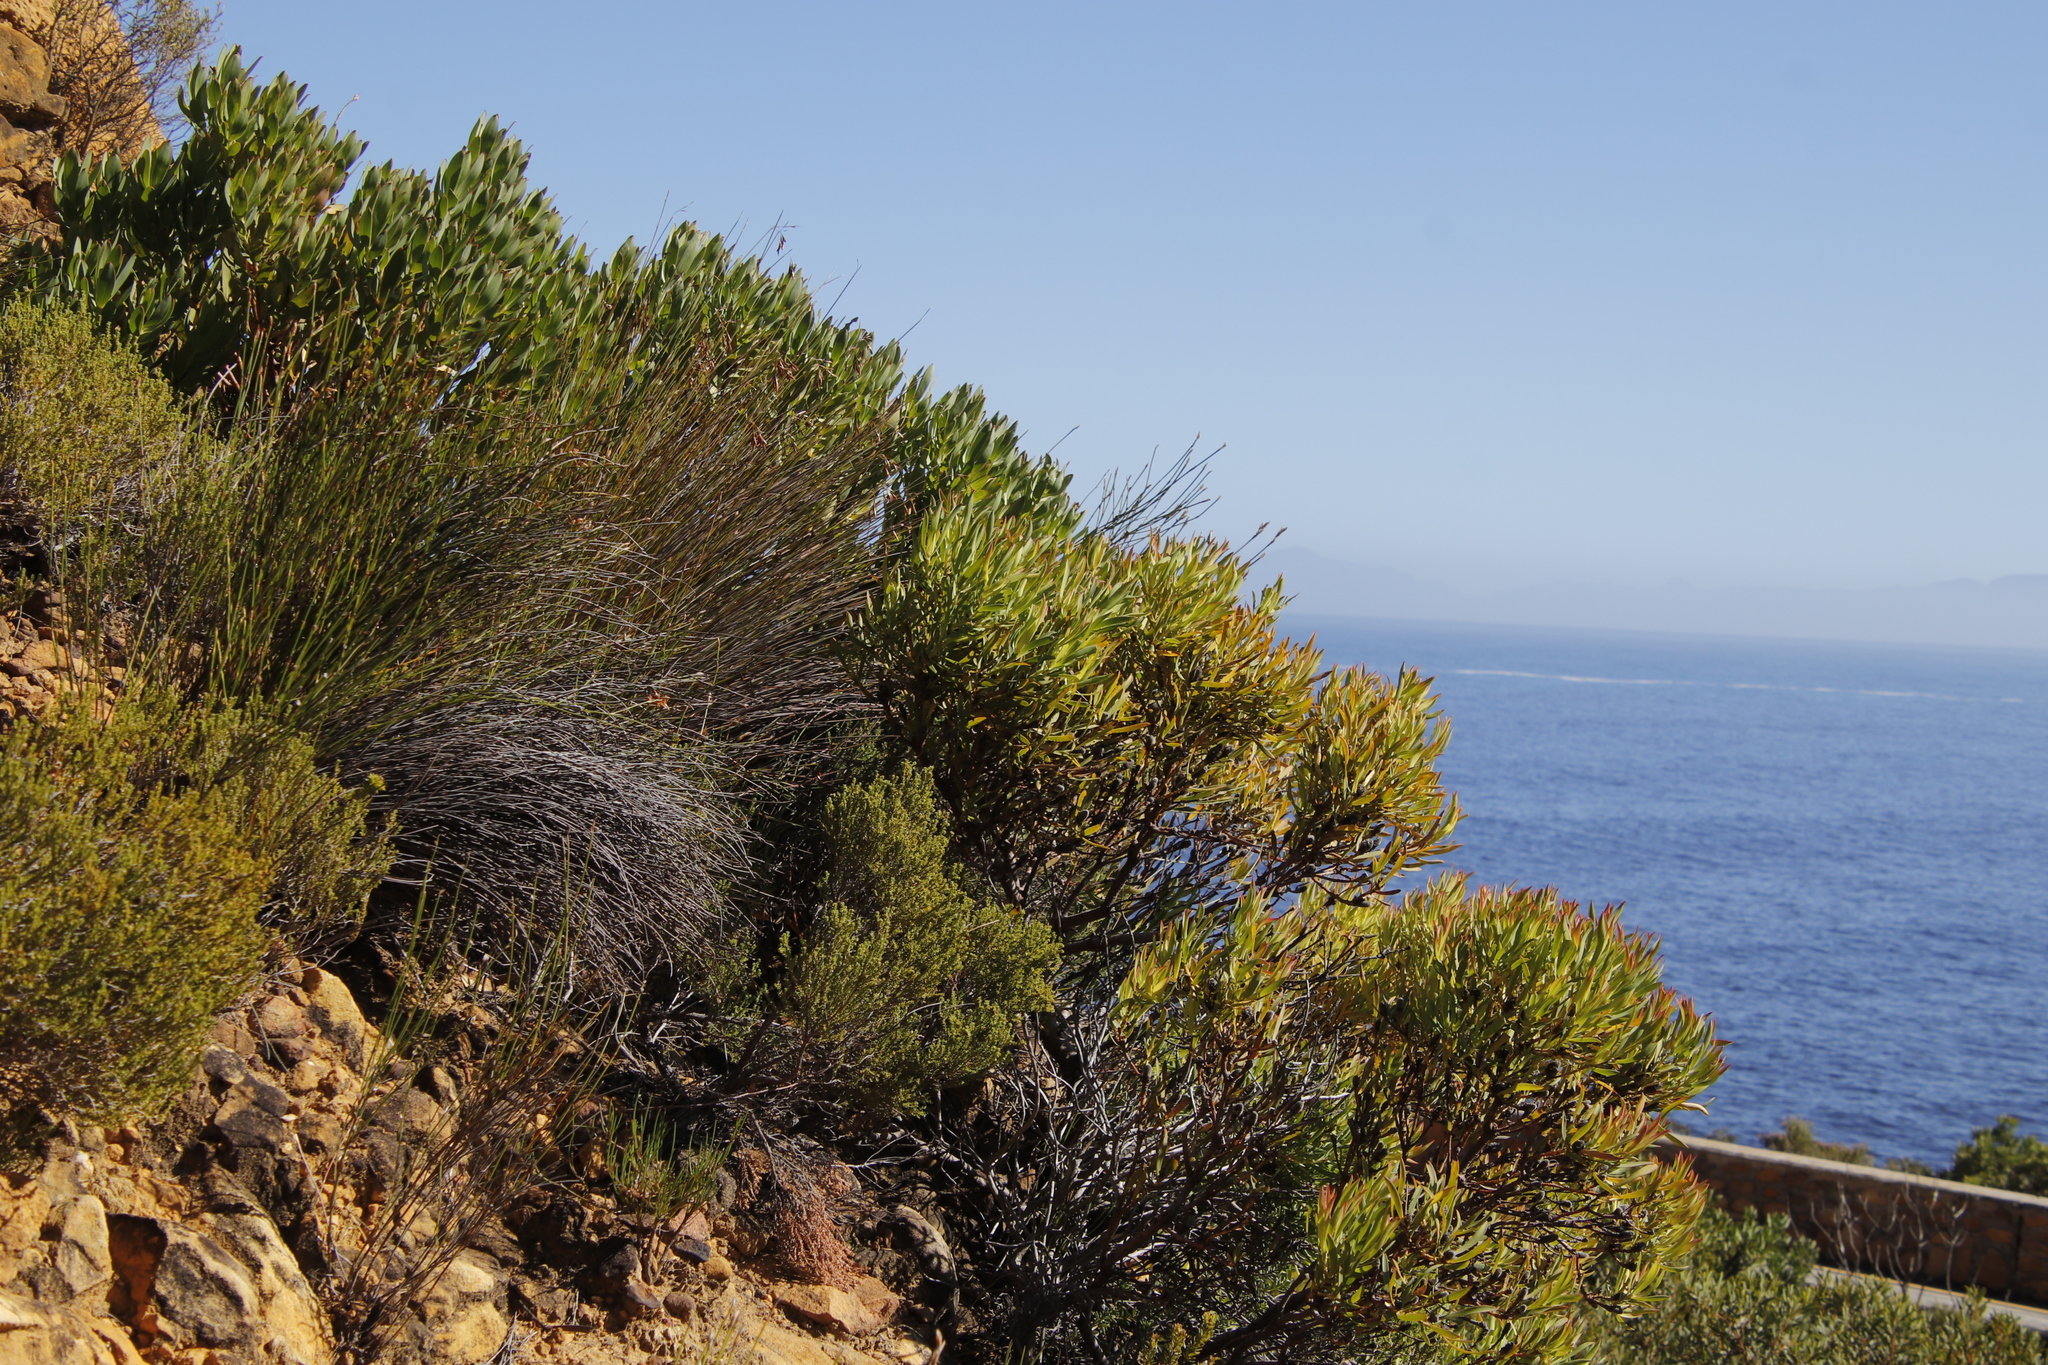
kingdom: Plantae
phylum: Tracheophyta
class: Magnoliopsida
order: Proteales
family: Proteaceae
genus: Leucadendron
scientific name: Leucadendron salignum
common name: Common sunshine conebush
